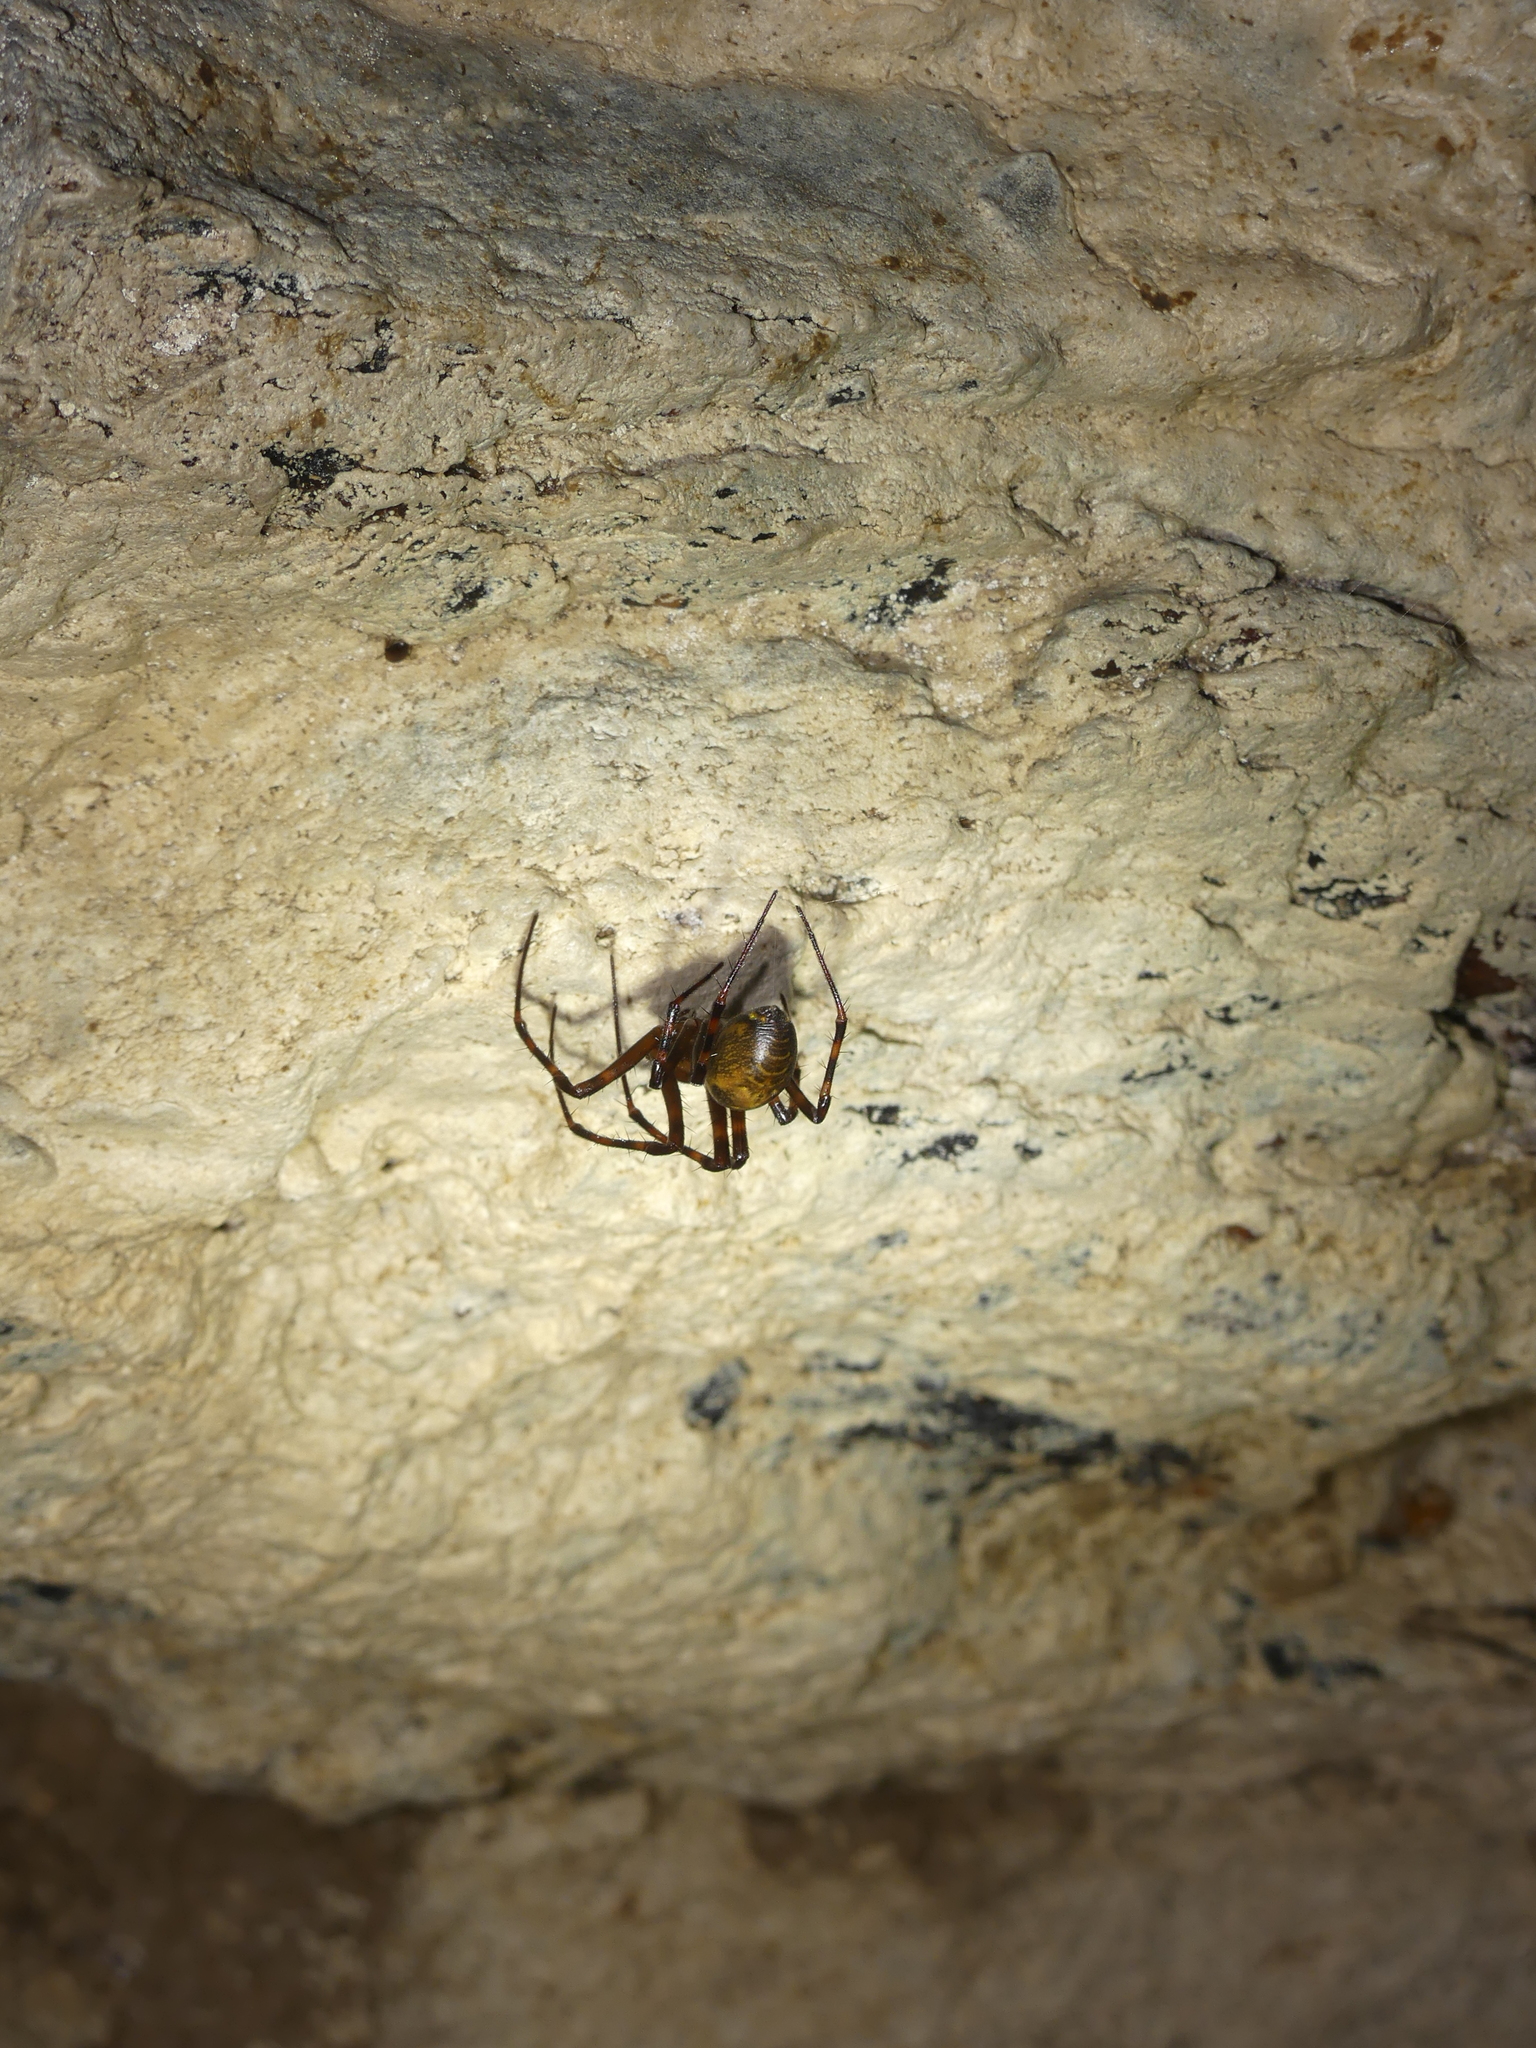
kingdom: Animalia
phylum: Arthropoda
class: Arachnida
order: Araneae
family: Tetragnathidae
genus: Meta
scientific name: Meta menardi
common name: Cave spider
